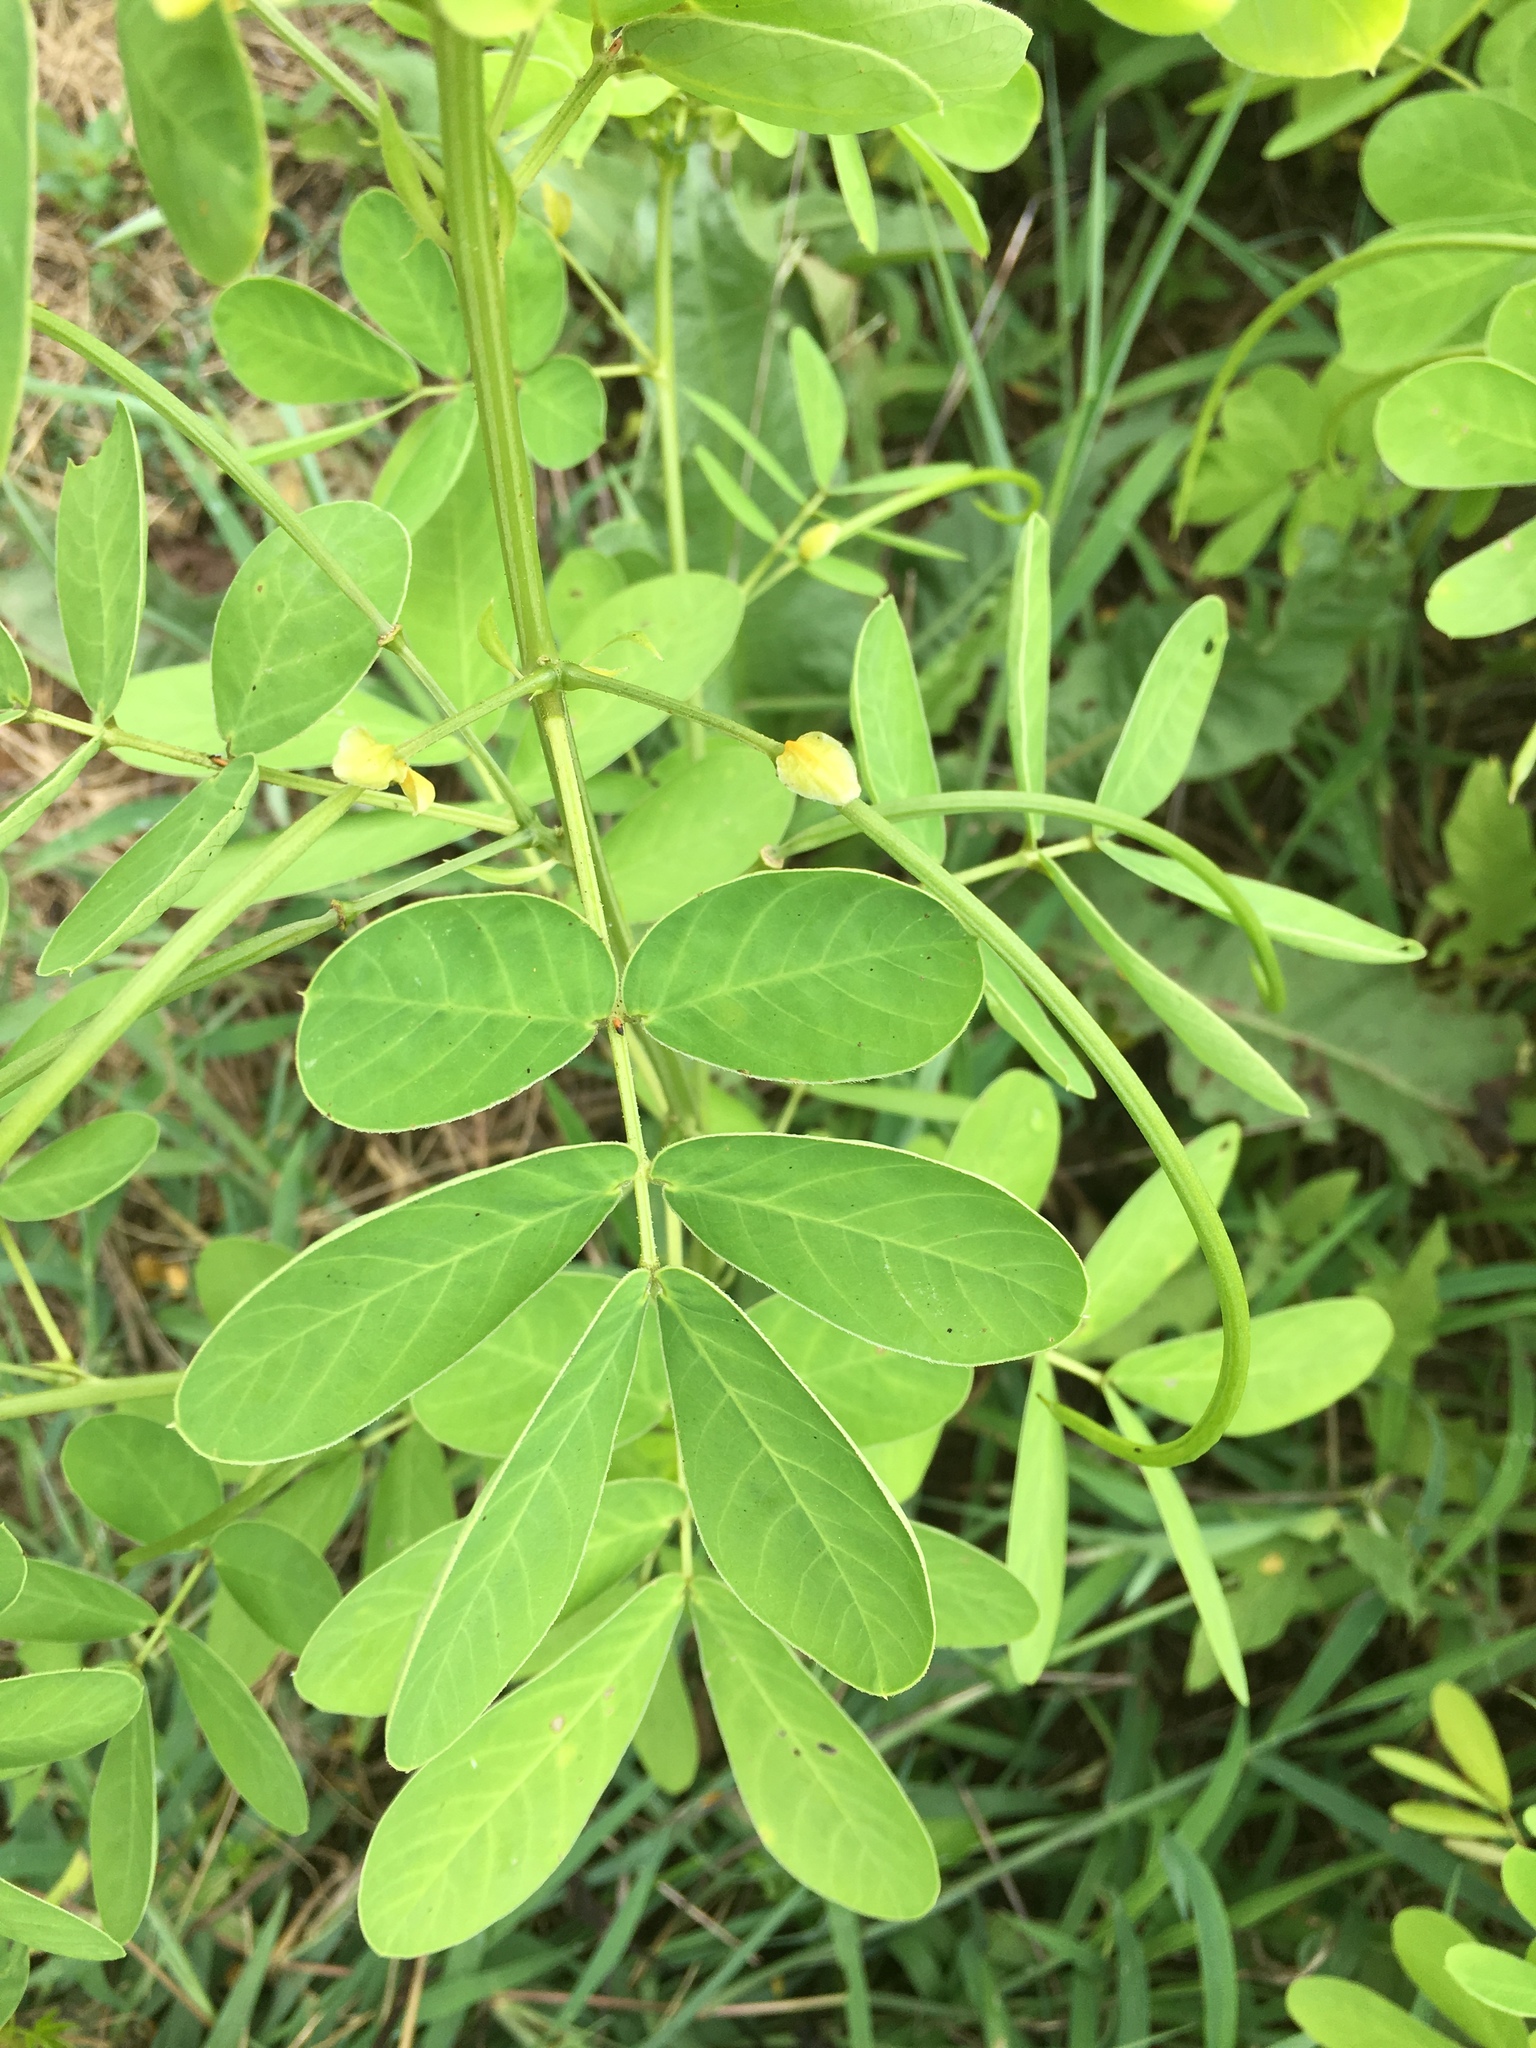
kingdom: Plantae
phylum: Tracheophyta
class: Magnoliopsida
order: Fabales
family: Fabaceae
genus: Senna
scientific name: Senna obtusifolia
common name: Java-bean
